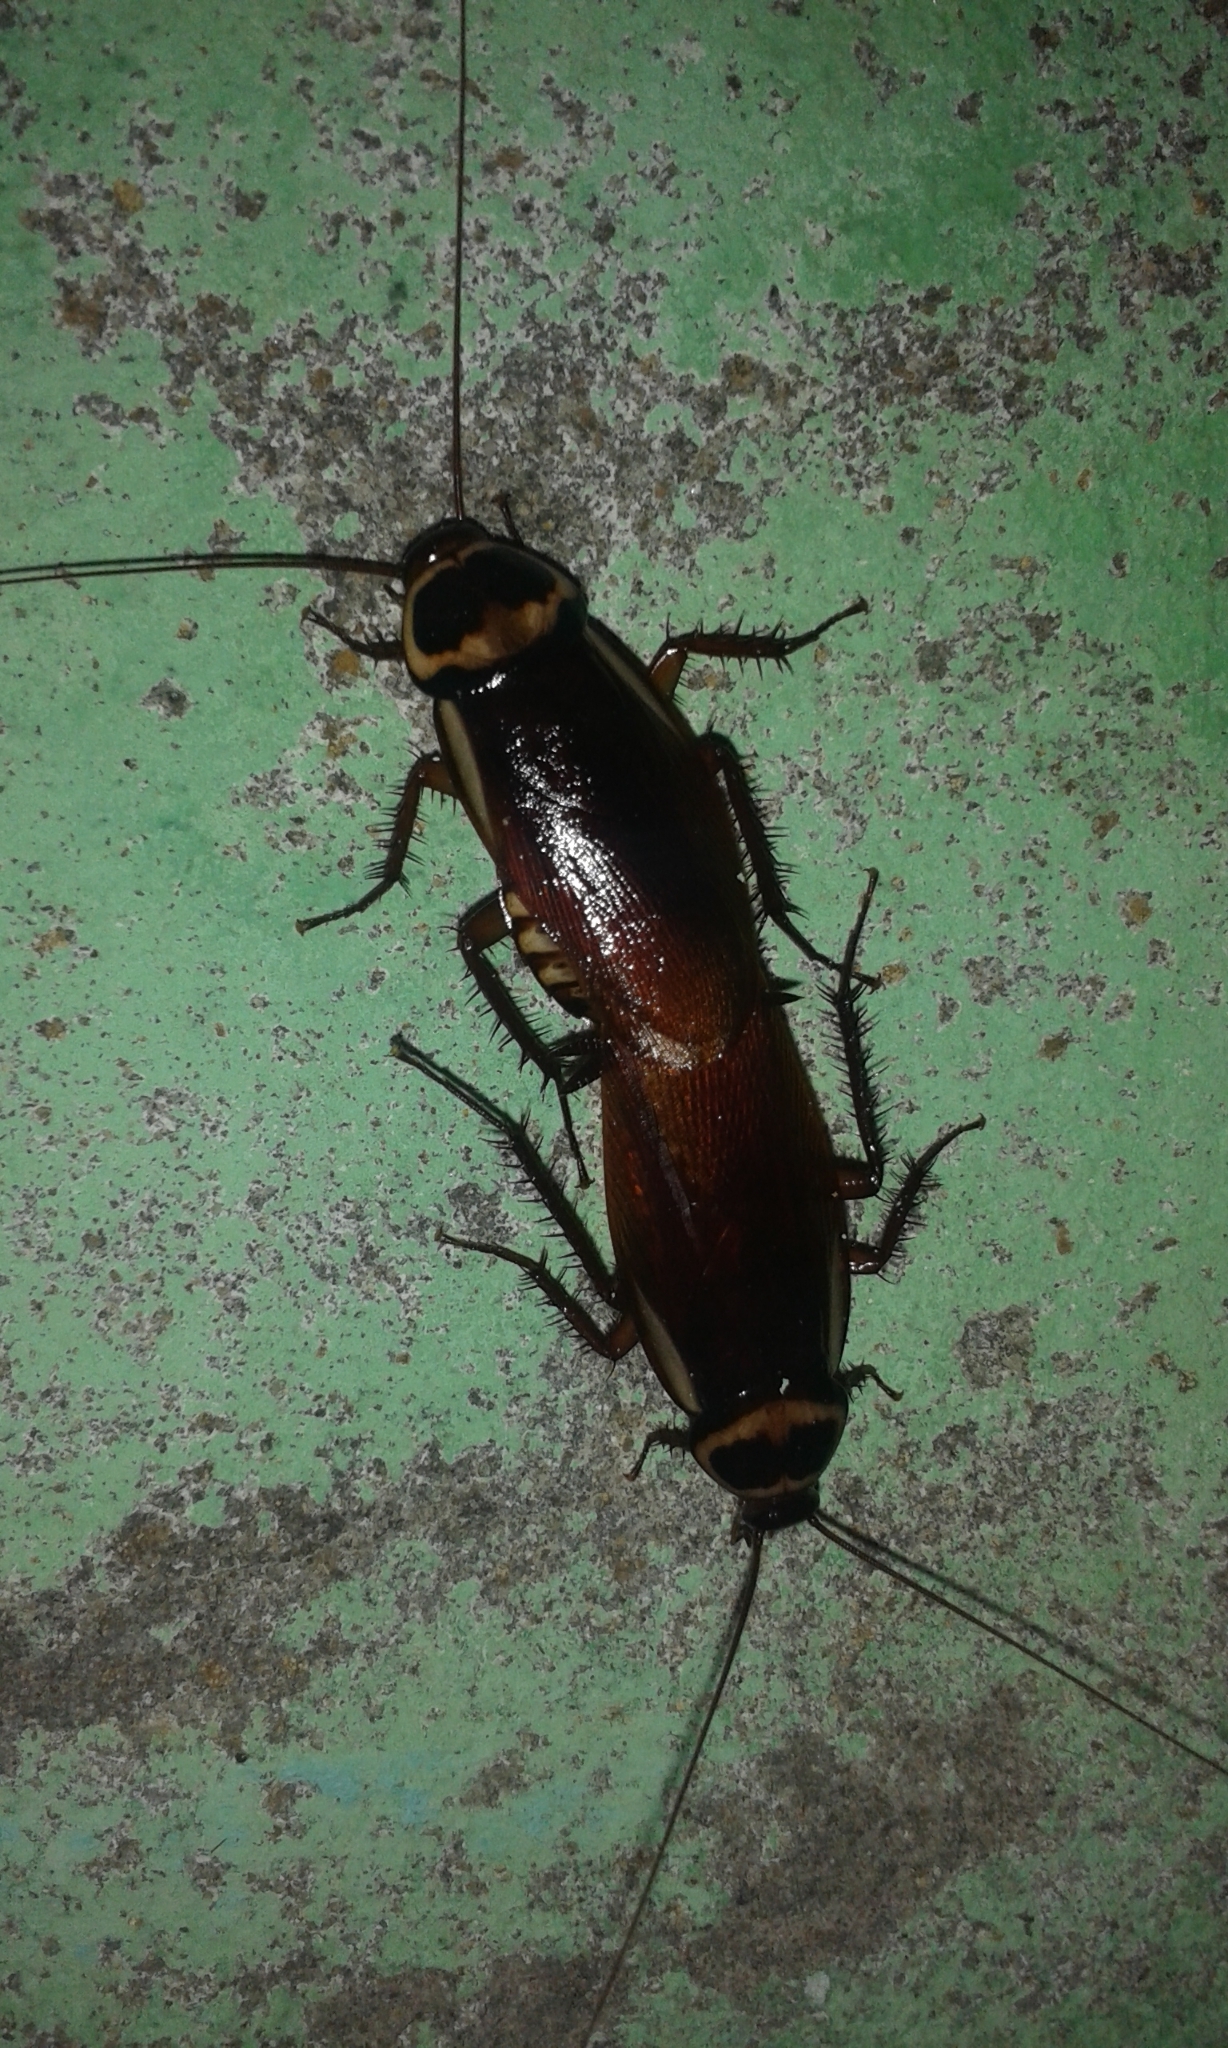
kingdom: Animalia
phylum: Arthropoda
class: Insecta
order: Blattodea
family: Blattidae
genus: Periplaneta
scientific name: Periplaneta australasiae
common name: Australian cockroach
